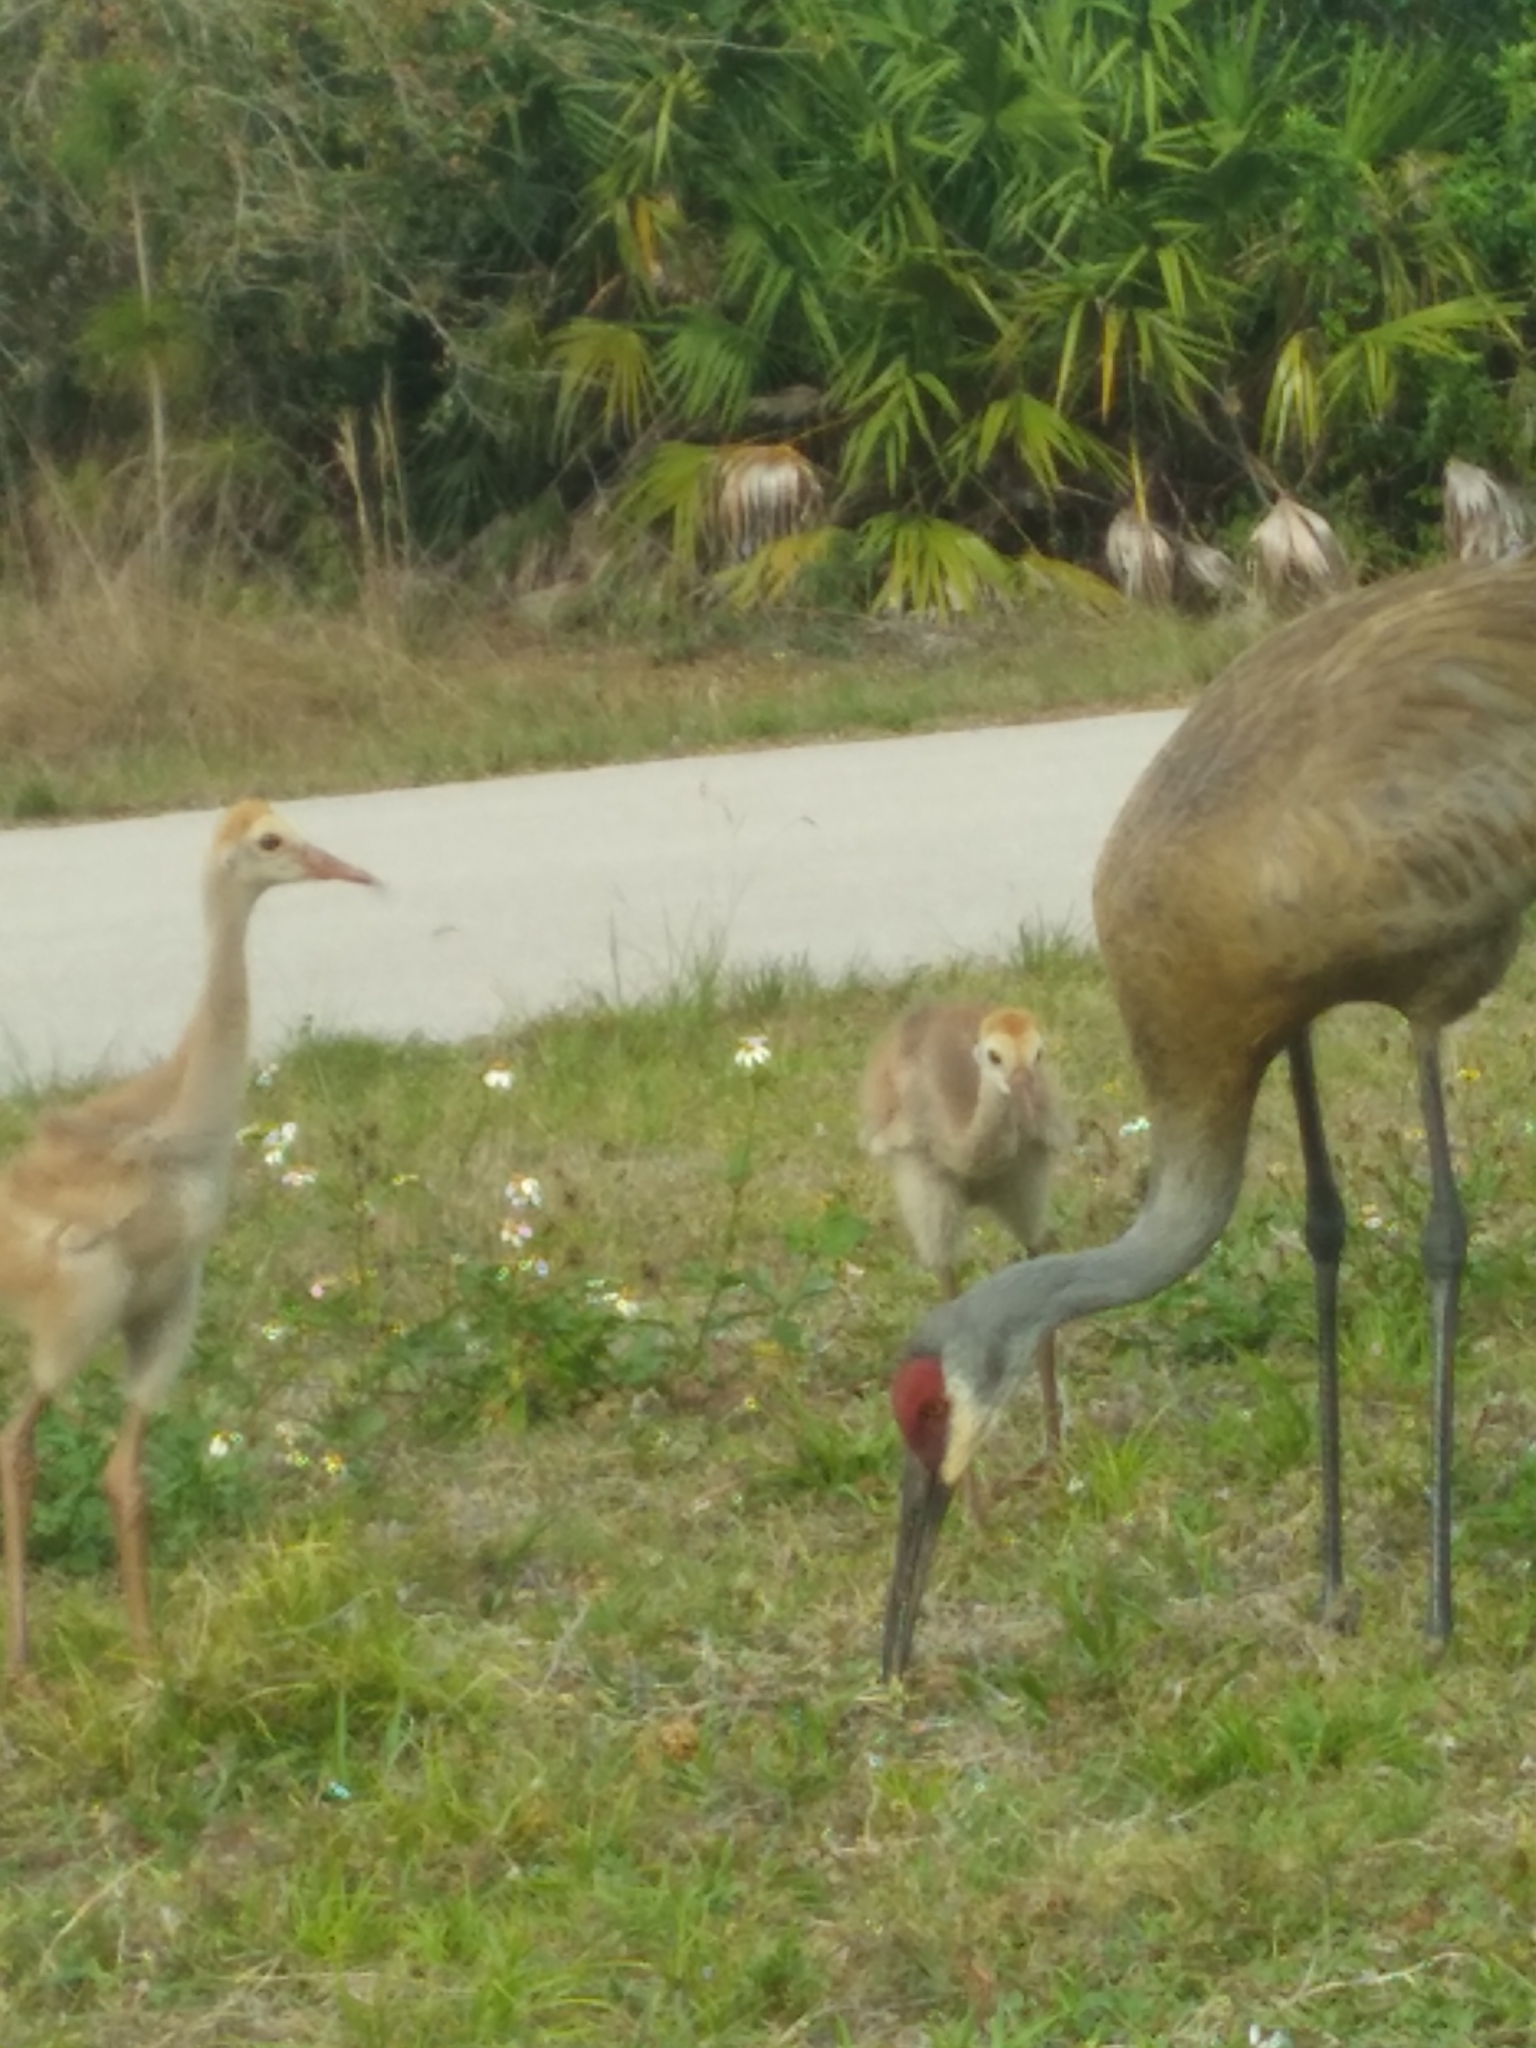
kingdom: Animalia
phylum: Chordata
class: Aves
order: Gruiformes
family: Gruidae
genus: Grus
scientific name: Grus canadensis
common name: Sandhill crane
